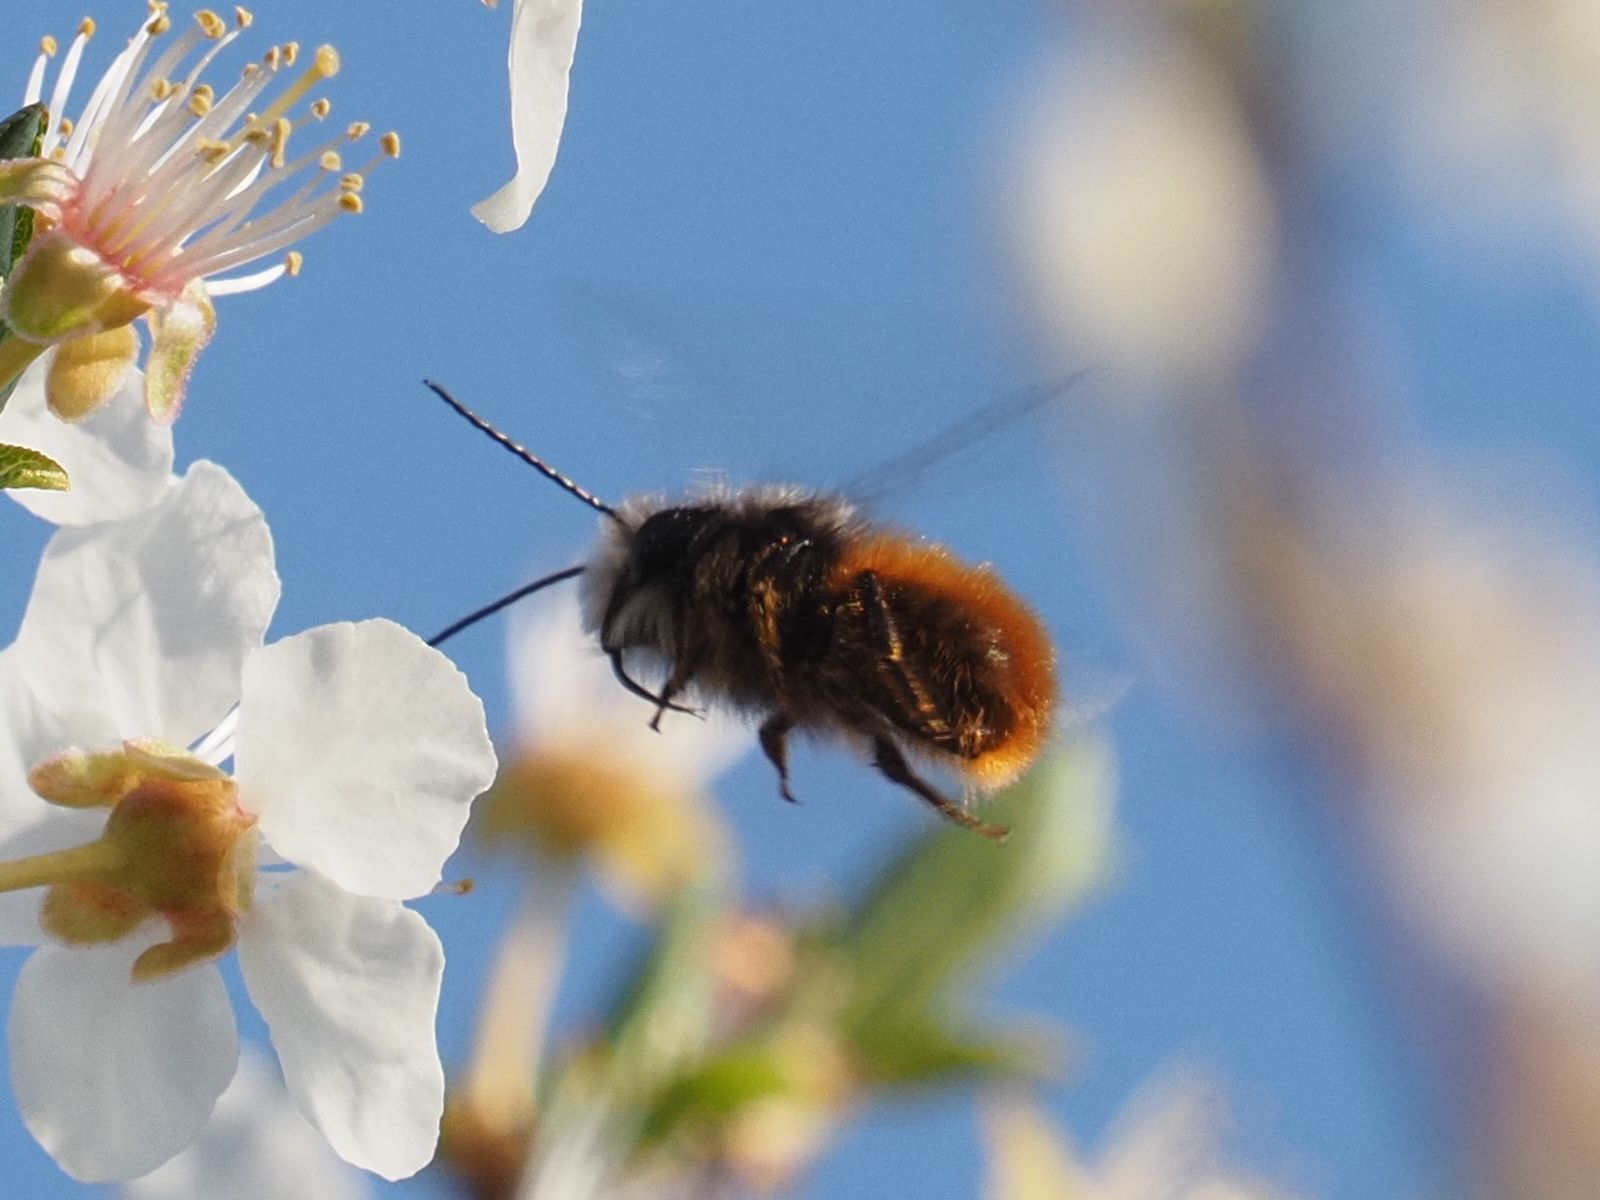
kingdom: Animalia
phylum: Arthropoda
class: Insecta
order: Hymenoptera
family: Megachilidae
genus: Osmia
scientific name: Osmia cornuta
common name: Mason bee
